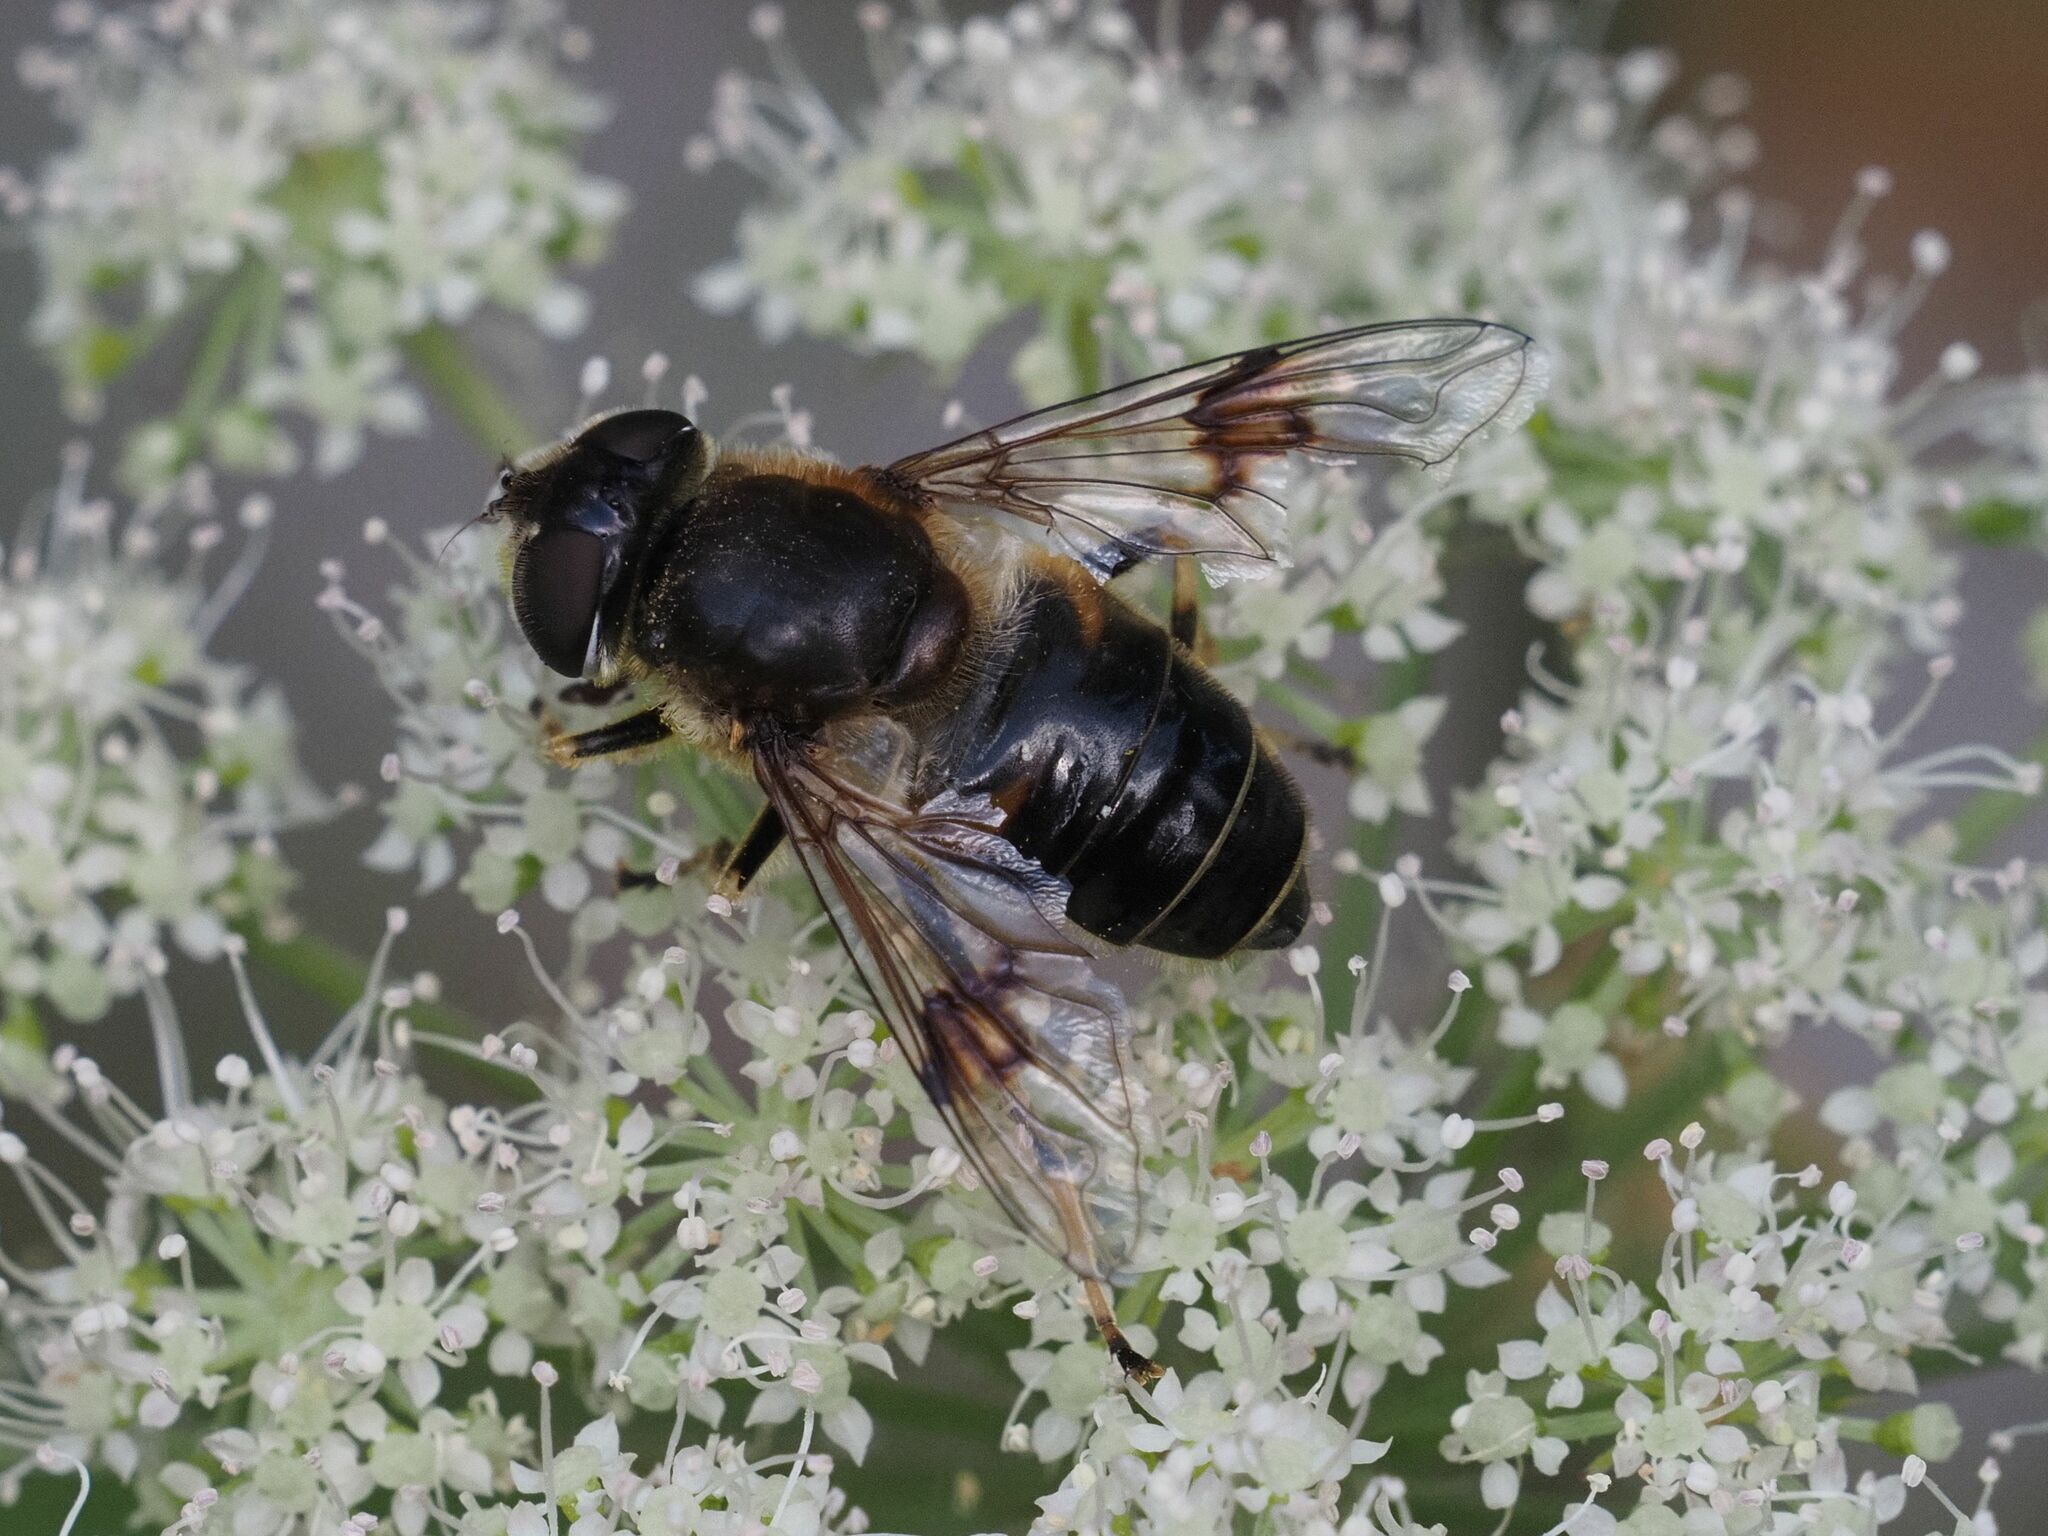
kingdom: Animalia
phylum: Arthropoda
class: Insecta
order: Diptera
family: Syrphidae
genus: Eristalis
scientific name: Eristalis rupium
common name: Hover fly
